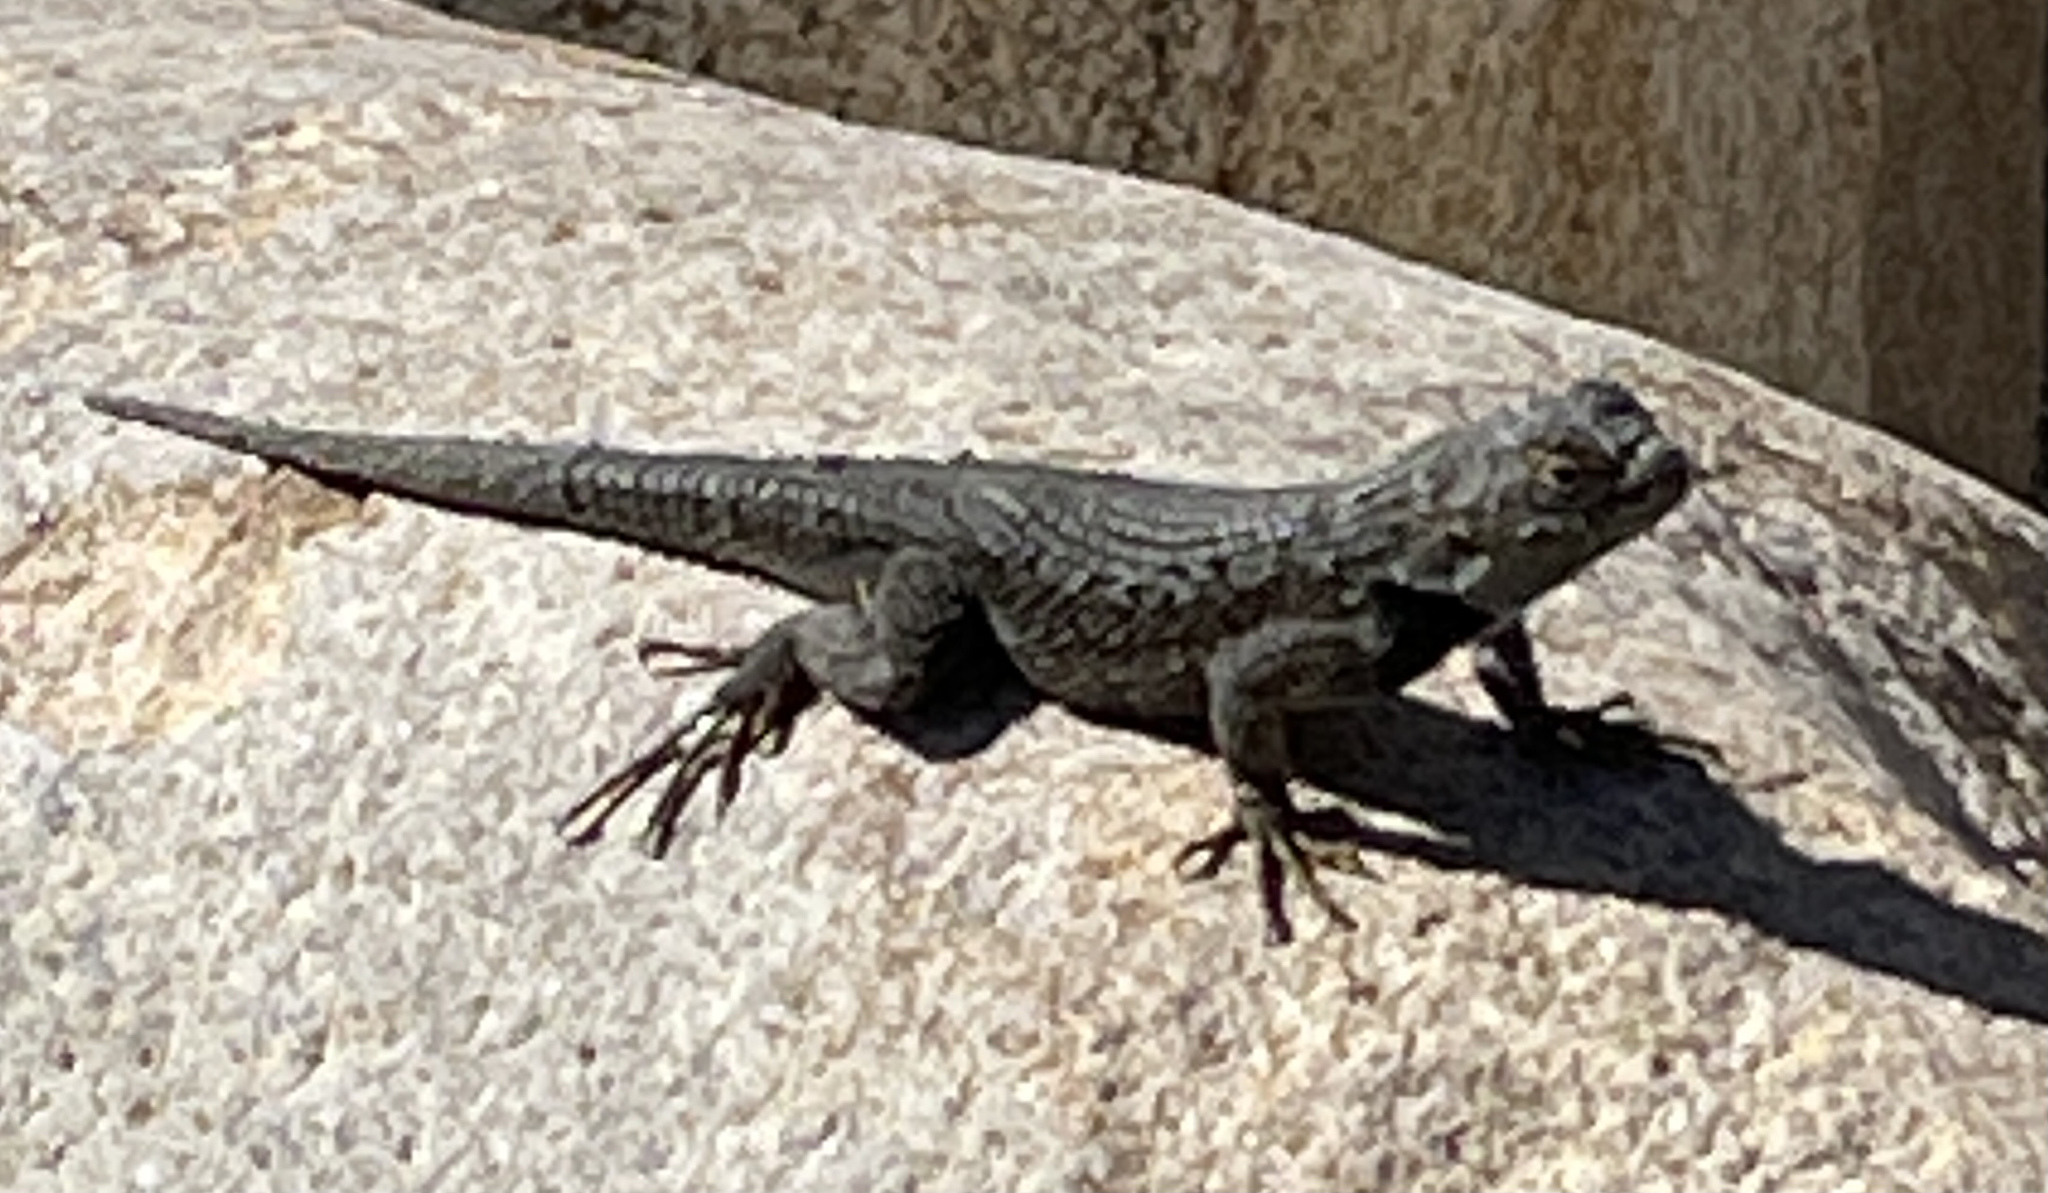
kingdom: Animalia
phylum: Chordata
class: Squamata
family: Phrynosomatidae
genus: Sceloporus
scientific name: Sceloporus occidentalis
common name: Western fence lizard
